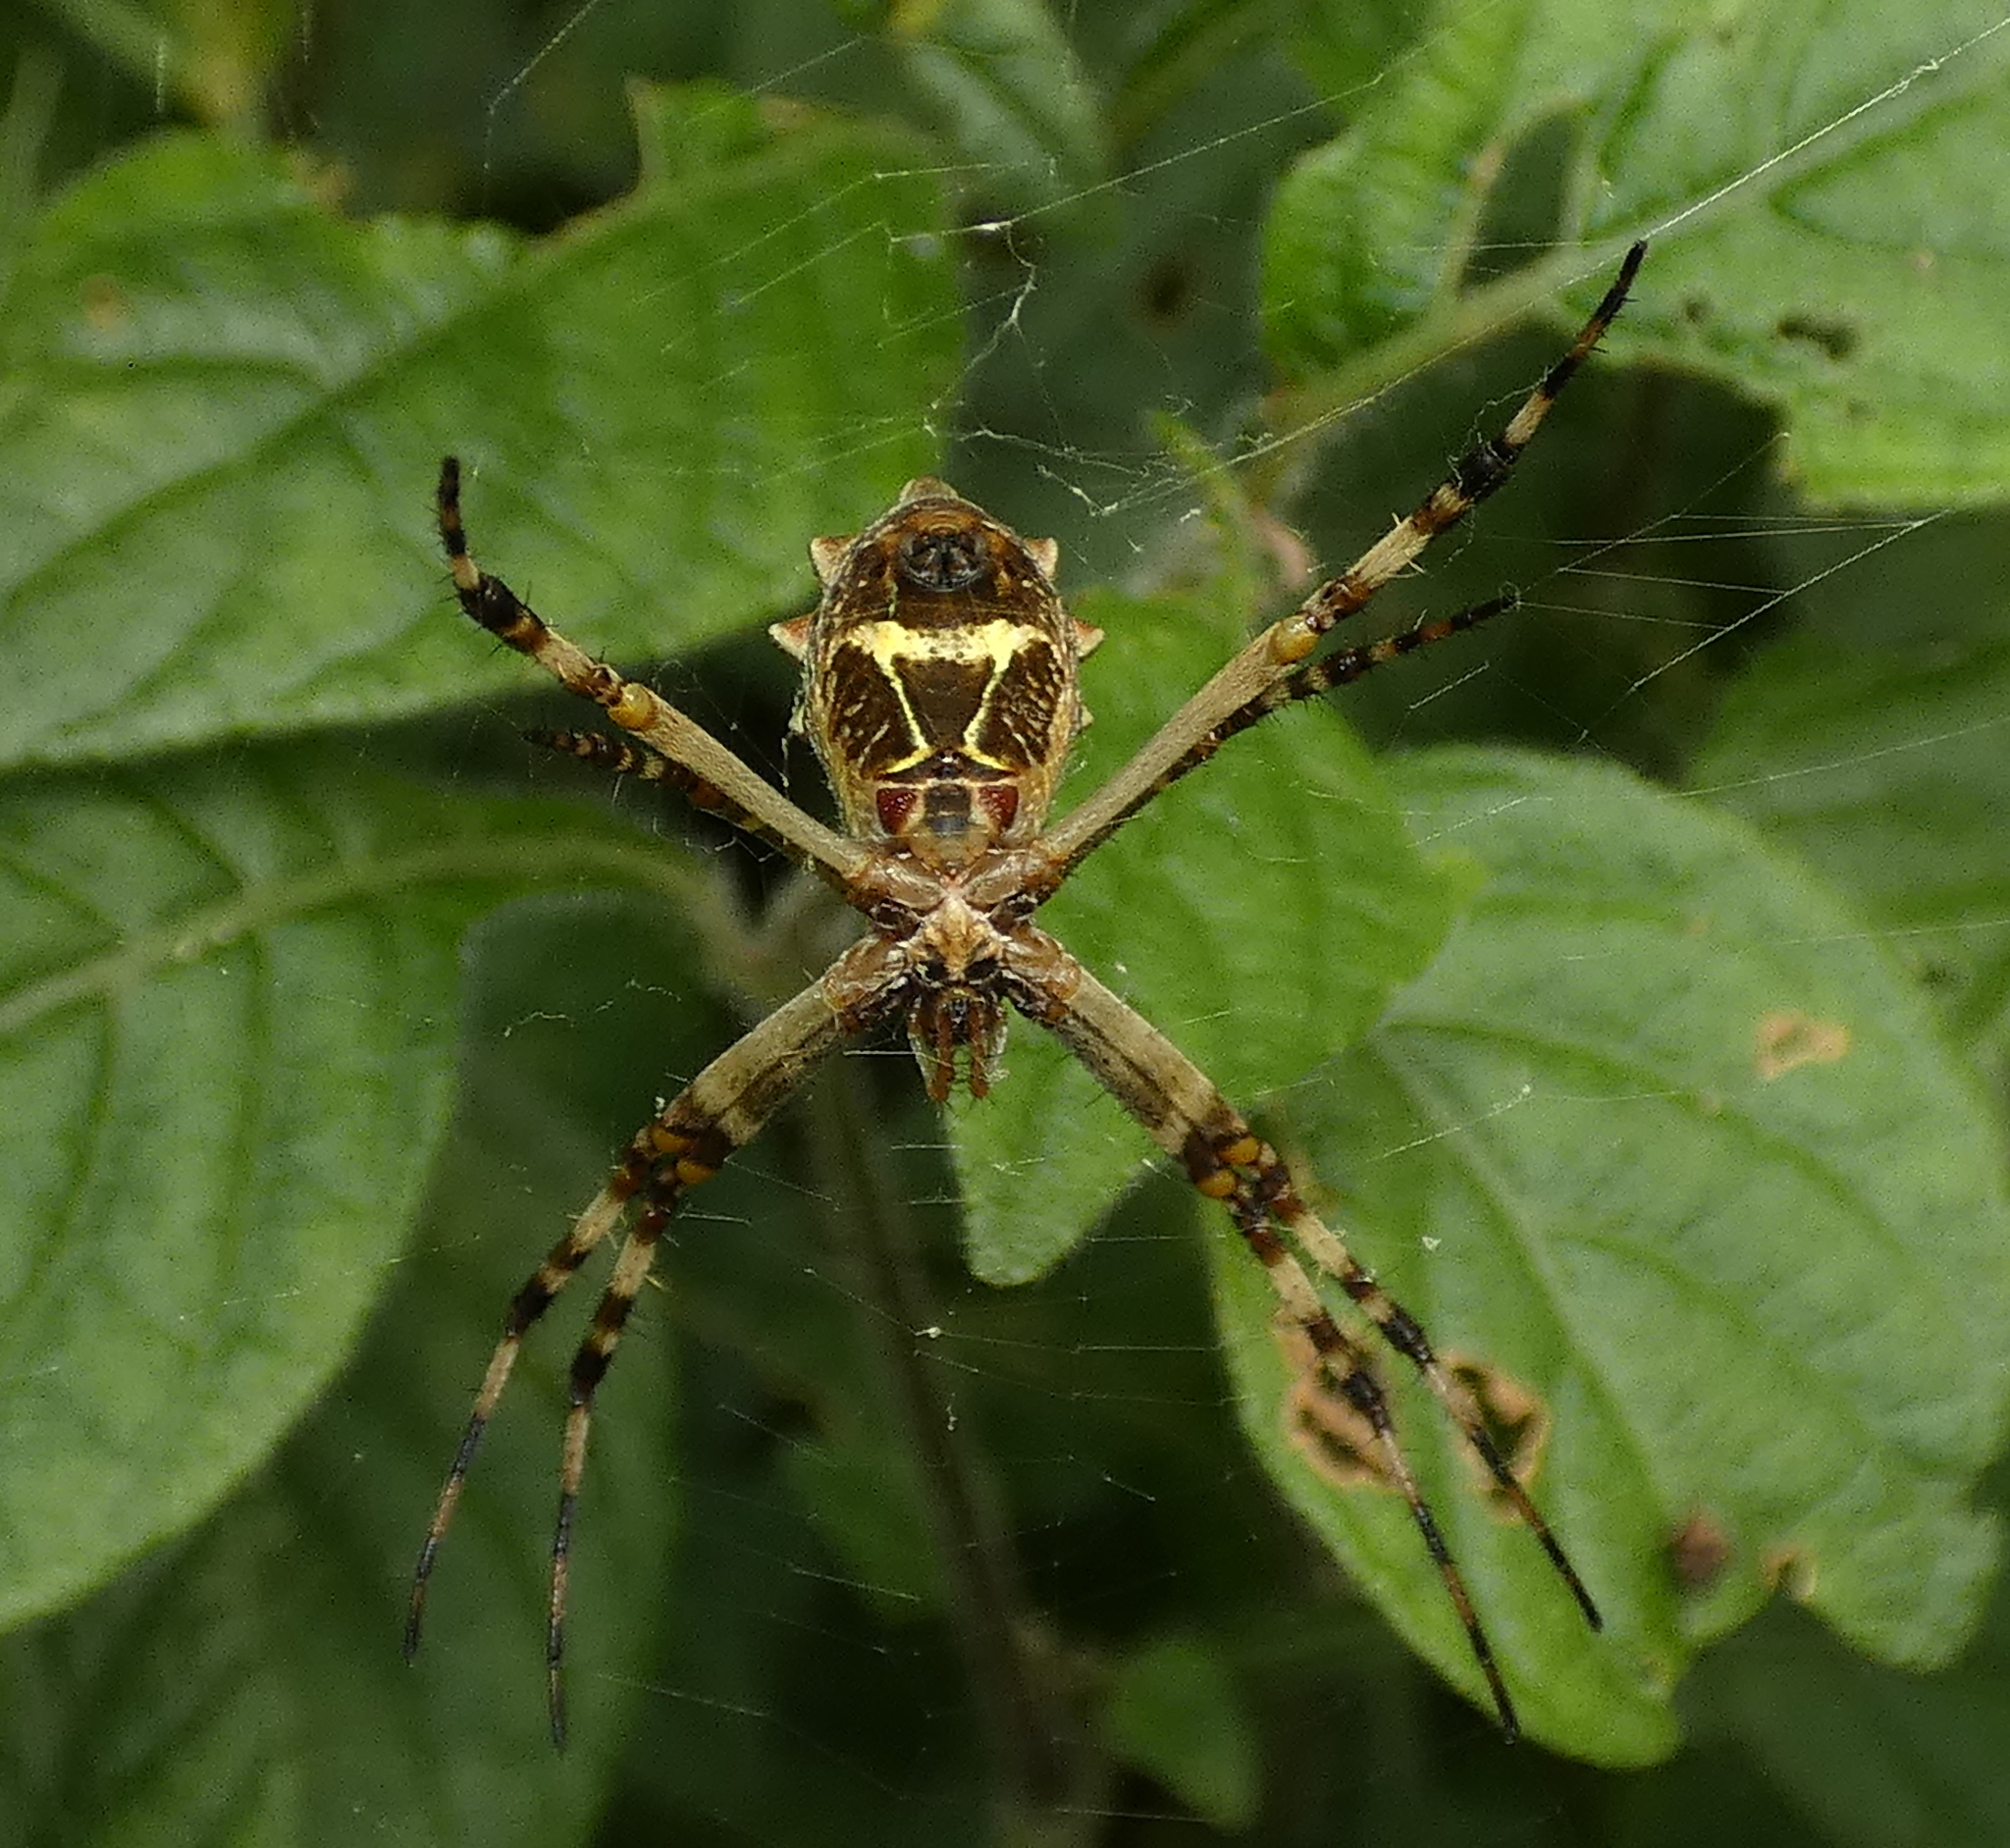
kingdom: Animalia
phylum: Arthropoda
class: Arachnida
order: Araneae
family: Araneidae
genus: Argiope
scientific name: Argiope argentata
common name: Orb weavers
